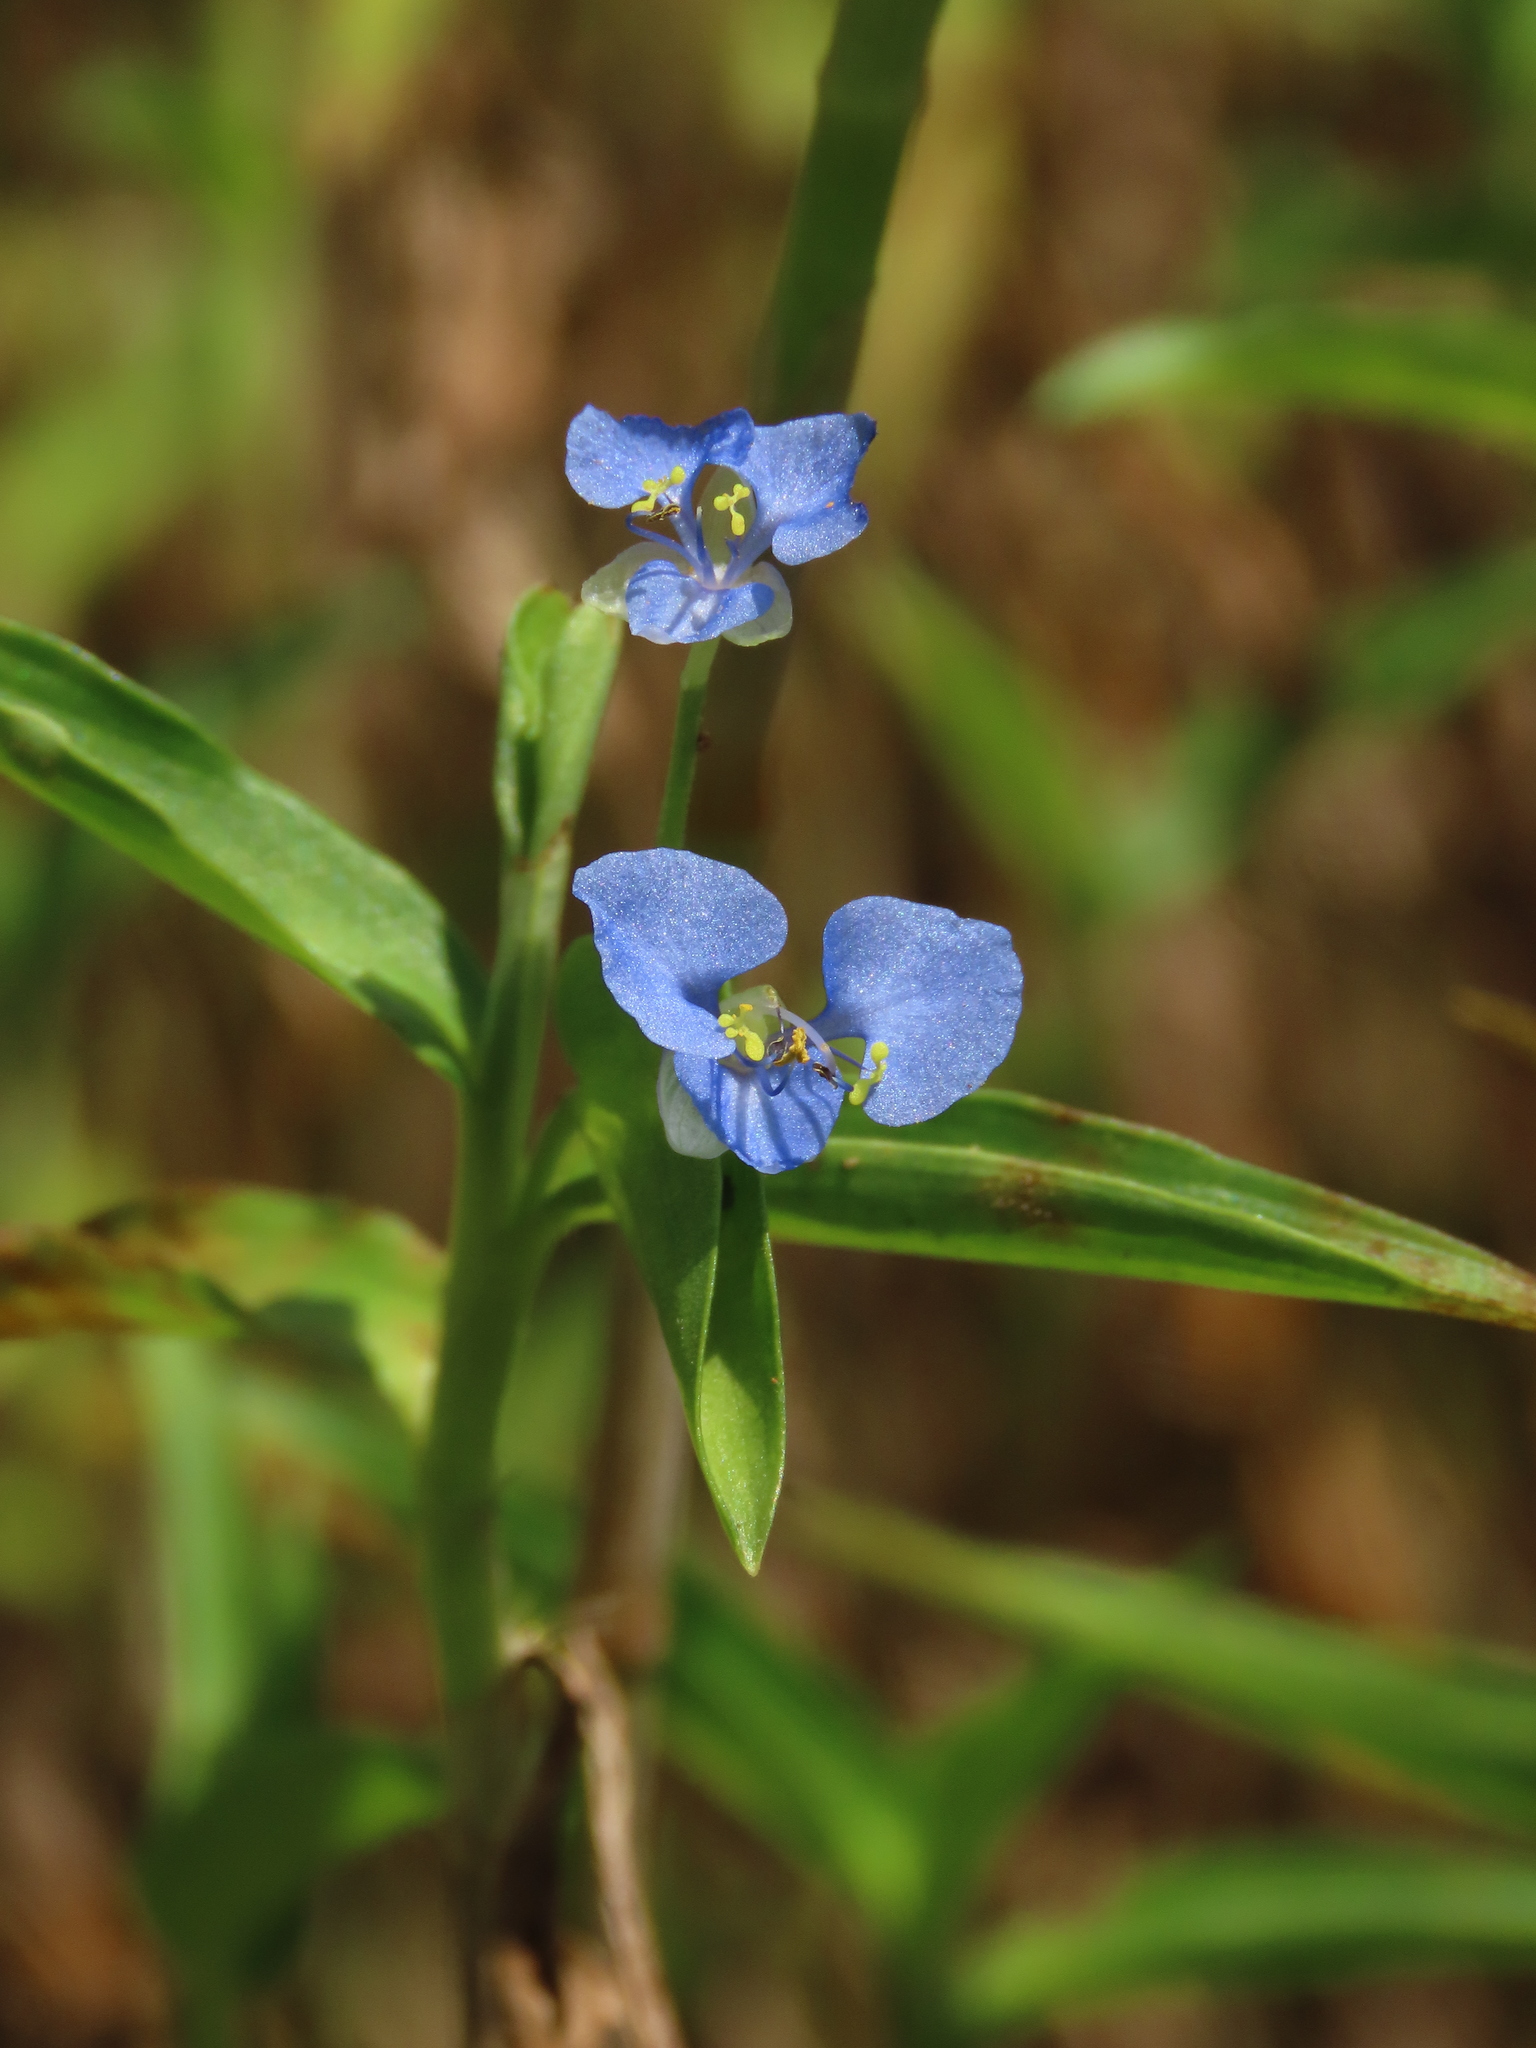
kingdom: Plantae
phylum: Tracheophyta
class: Liliopsida
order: Commelinales
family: Commelinaceae
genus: Commelina
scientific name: Commelina diffusa
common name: Climbing dayflower
